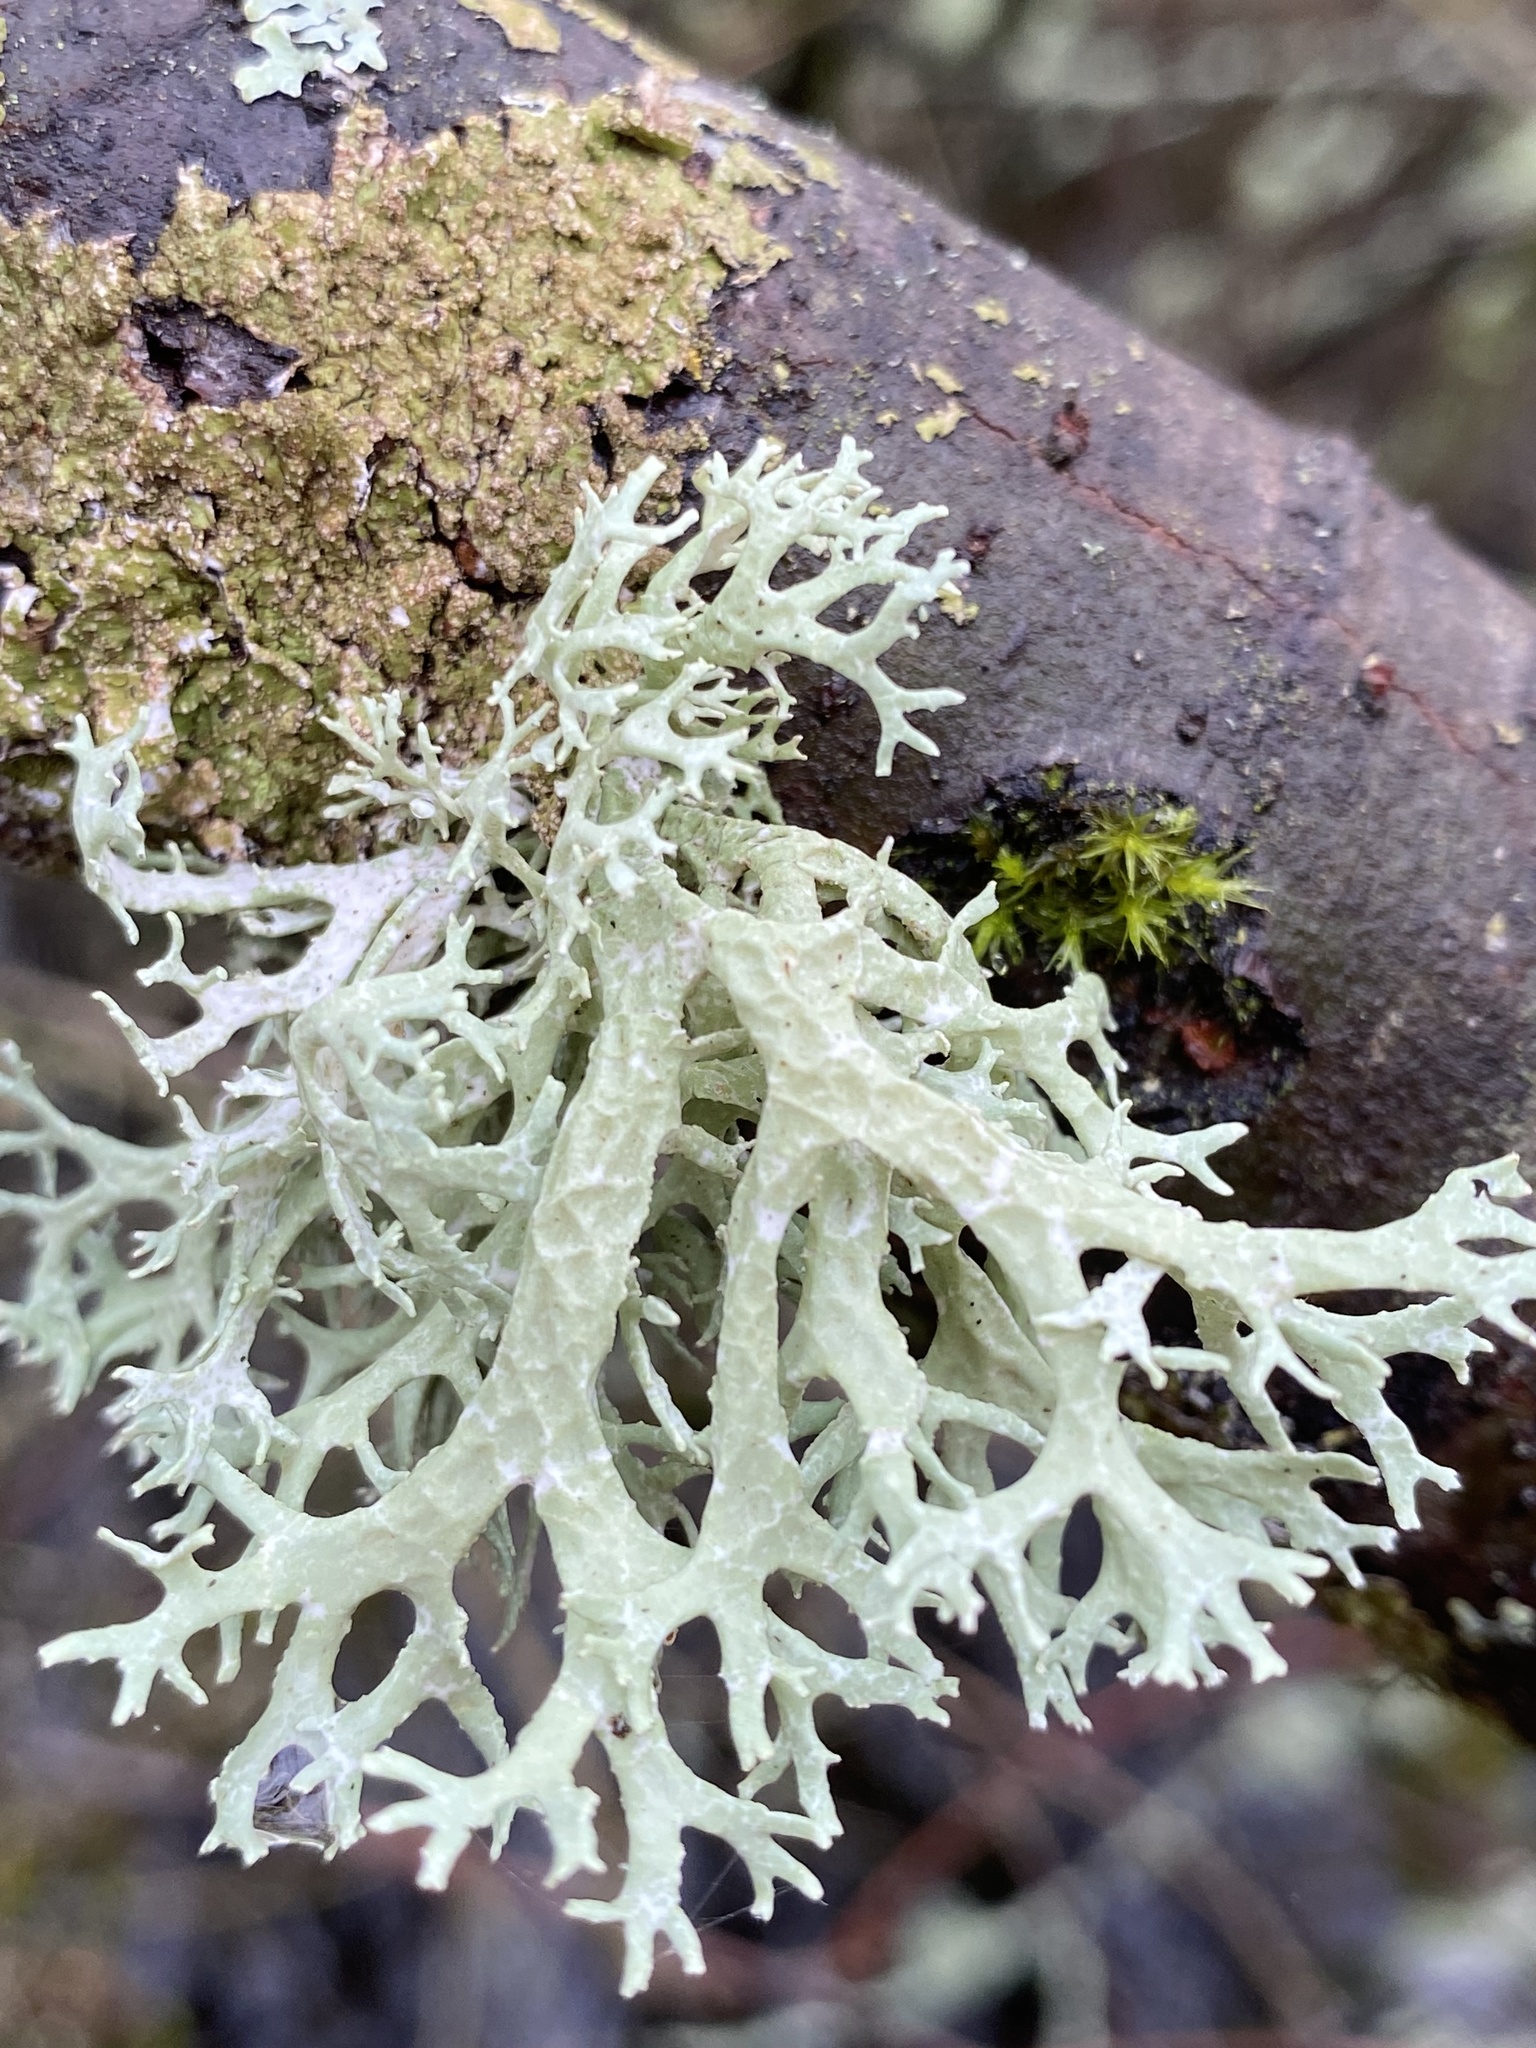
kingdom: Fungi
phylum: Ascomycota
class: Lecanoromycetes
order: Lecanorales
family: Parmeliaceae
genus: Evernia
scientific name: Evernia prunastri
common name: Oak moss
